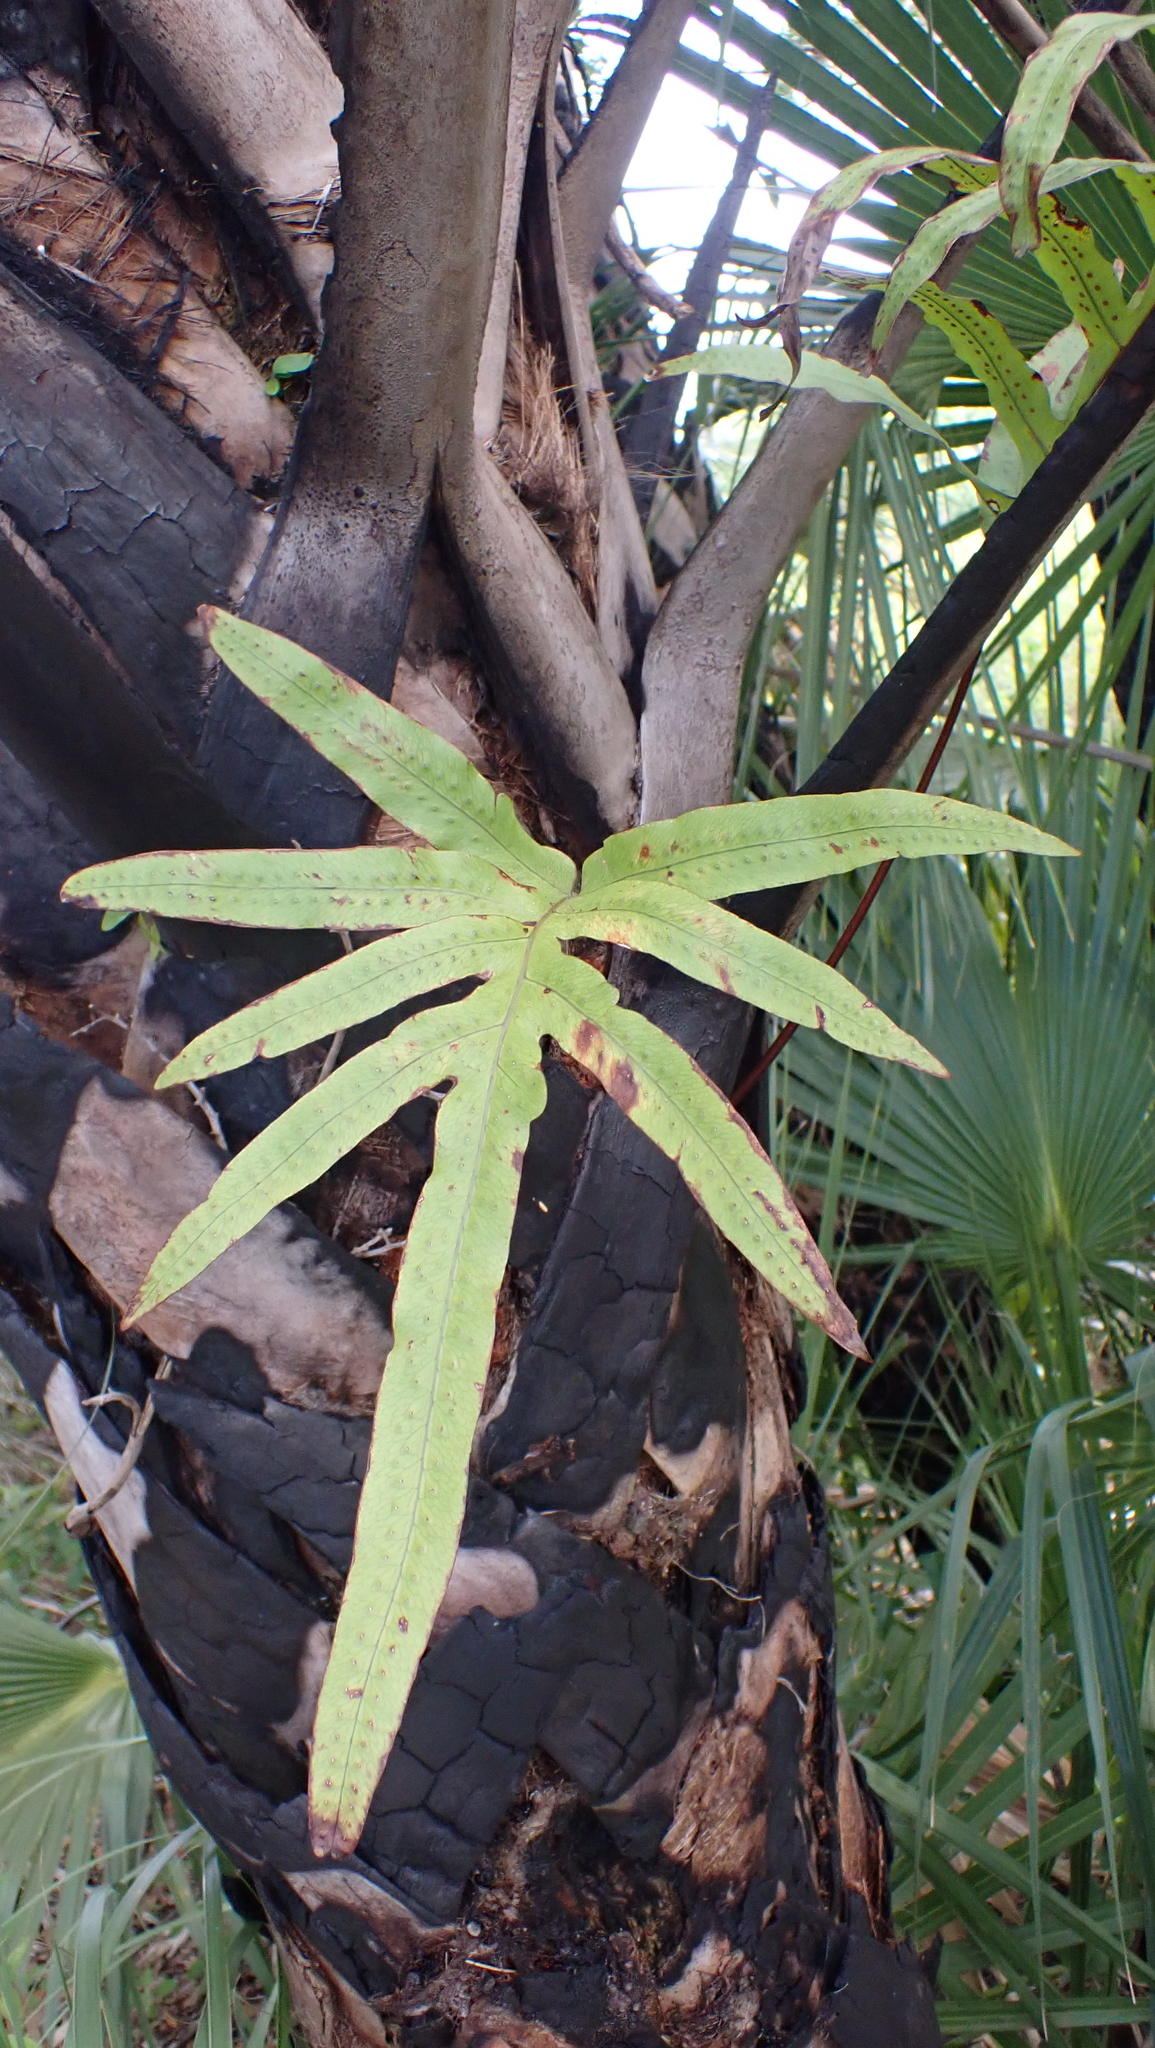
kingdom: Plantae
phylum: Tracheophyta
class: Polypodiopsida
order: Polypodiales
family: Polypodiaceae
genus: Phlebodium
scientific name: Phlebodium aureum
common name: Gold-foot fern
